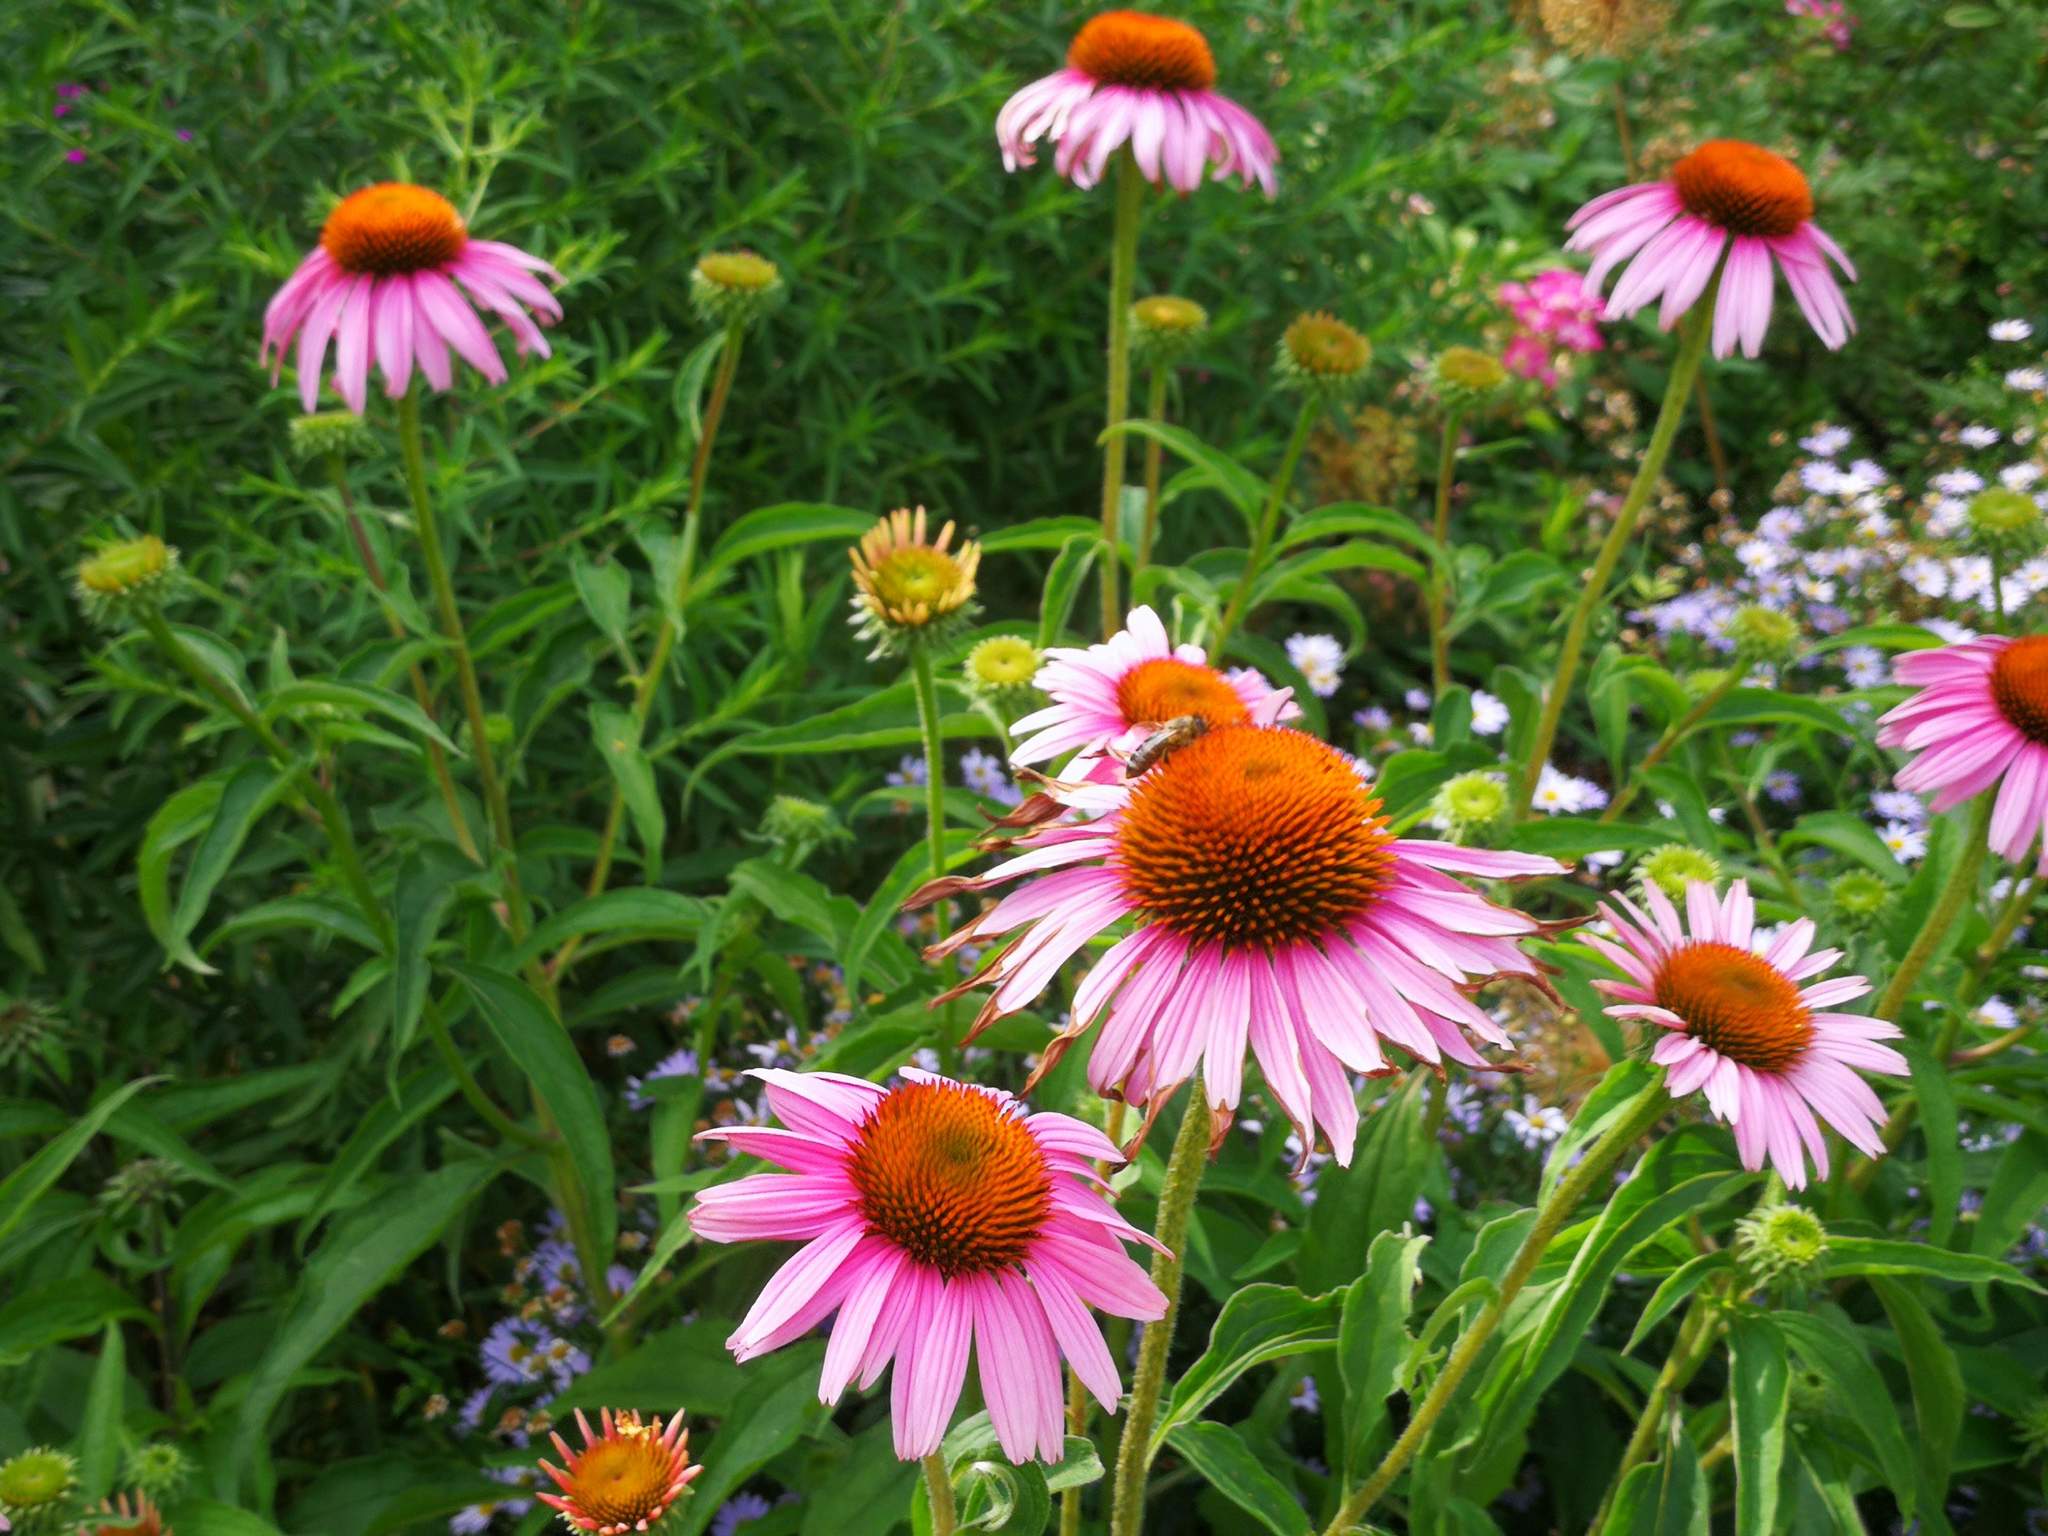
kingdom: Animalia
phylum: Arthropoda
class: Insecta
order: Hymenoptera
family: Apidae
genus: Apis
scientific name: Apis mellifera
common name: Honey bee
